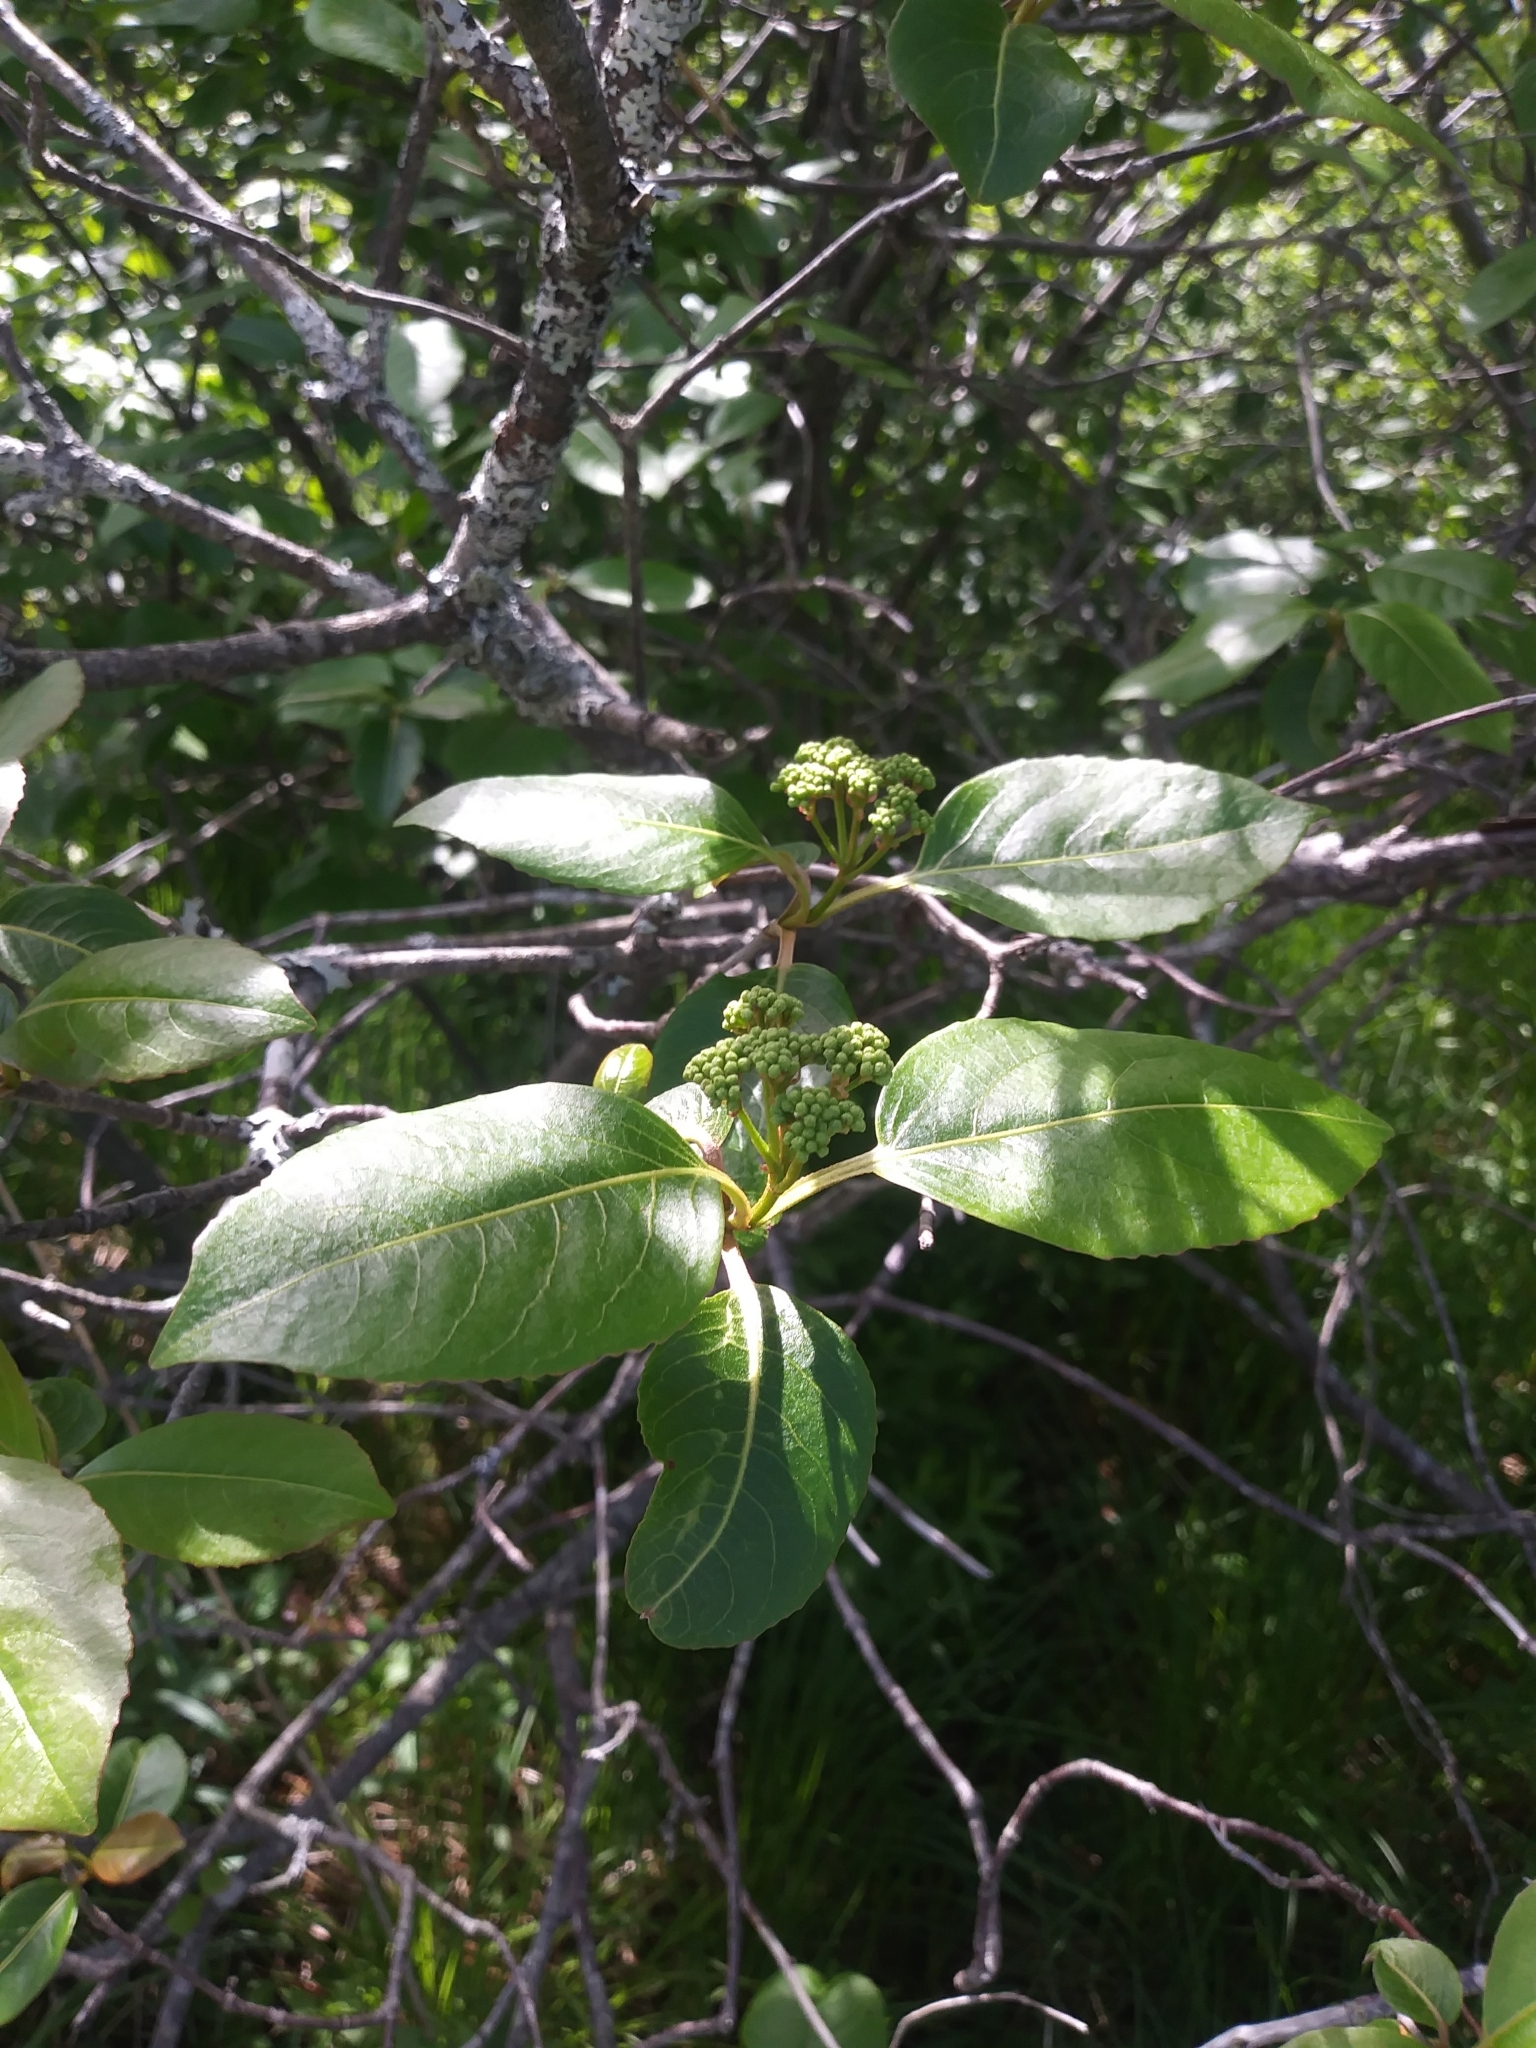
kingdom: Plantae
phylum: Tracheophyta
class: Magnoliopsida
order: Dipsacales
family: Viburnaceae
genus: Viburnum
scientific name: Viburnum cassinoides
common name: Swamp haw
